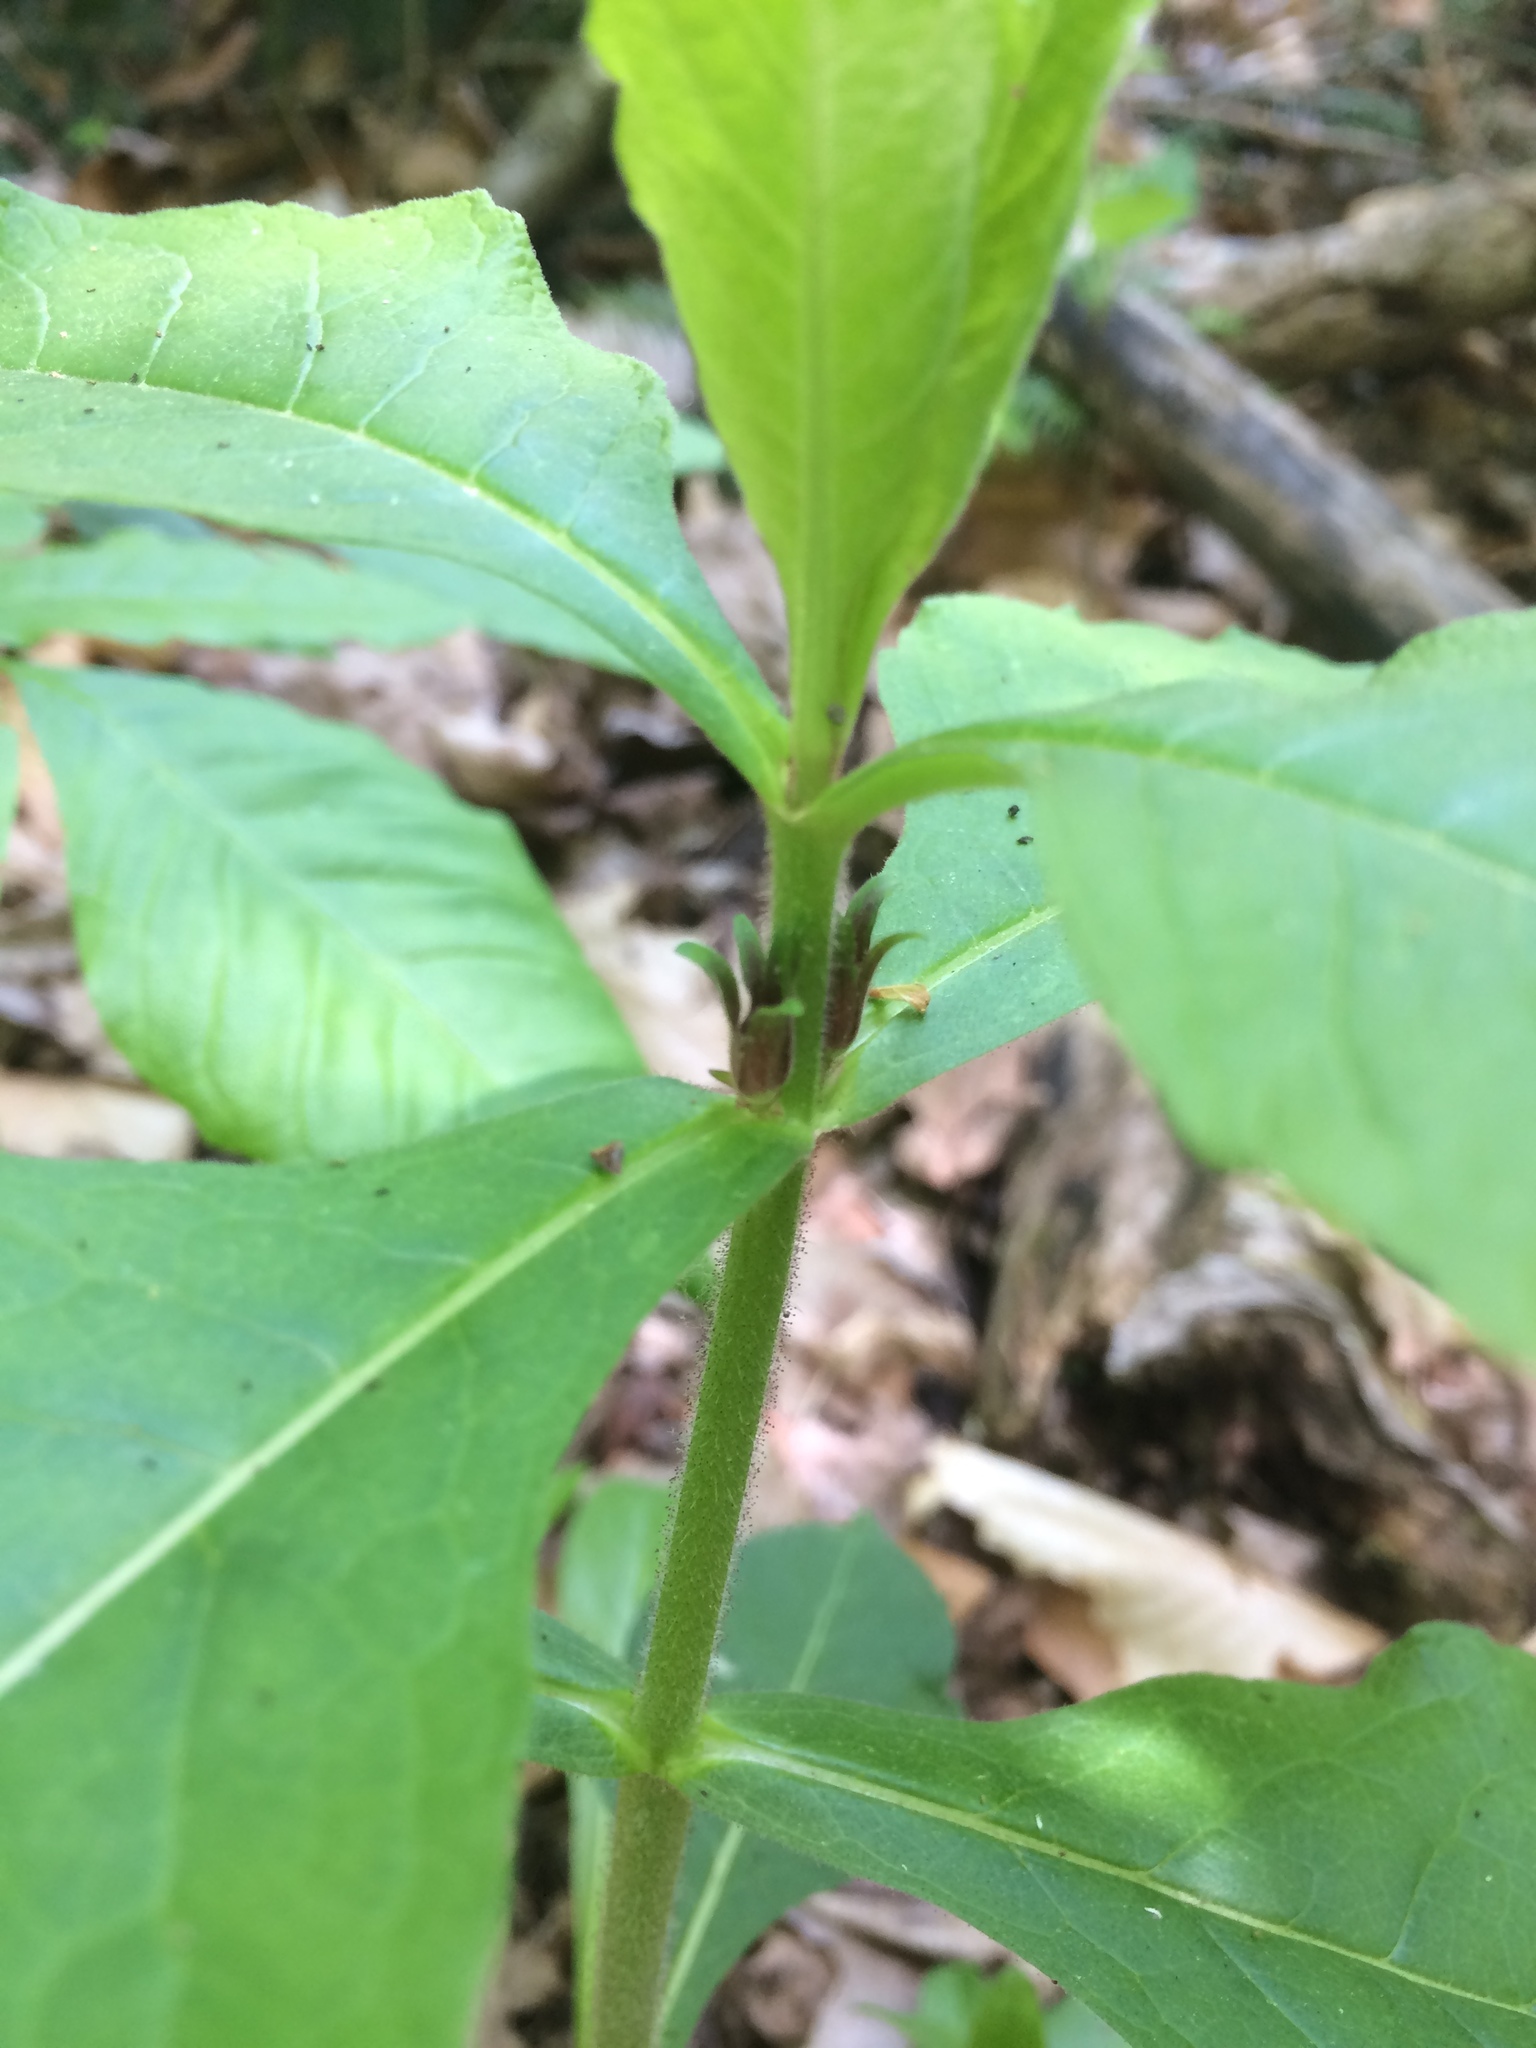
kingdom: Plantae
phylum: Tracheophyta
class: Magnoliopsida
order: Dipsacales
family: Caprifoliaceae
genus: Triosteum
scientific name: Triosteum aurantiacum
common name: Coffee tinker's-weed
